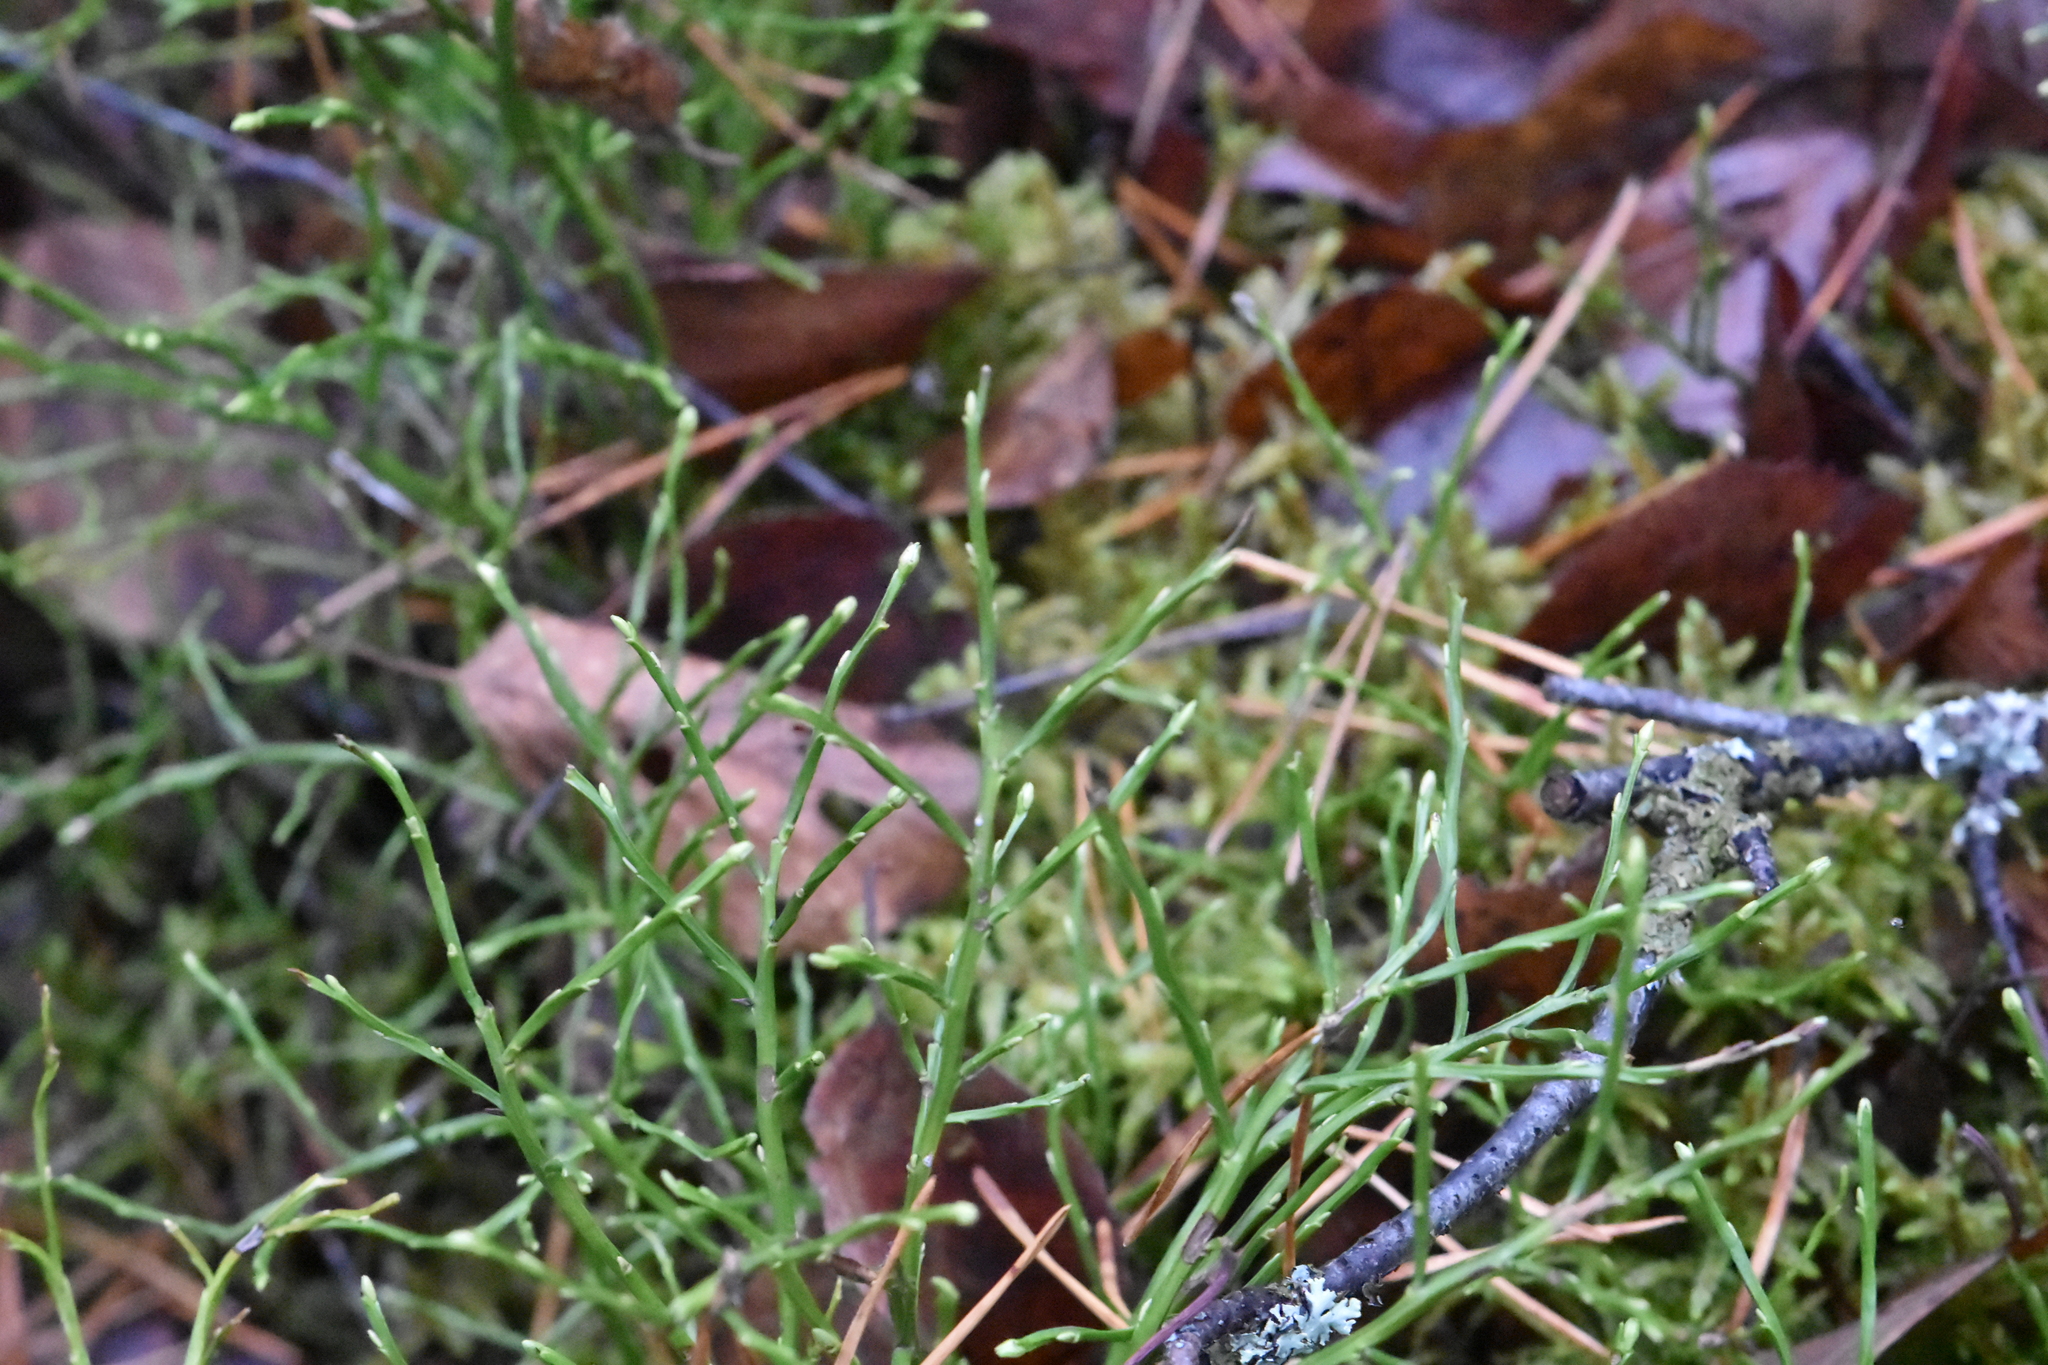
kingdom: Plantae
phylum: Tracheophyta
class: Magnoliopsida
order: Ericales
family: Ericaceae
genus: Vaccinium
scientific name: Vaccinium myrtillus
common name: Bilberry
